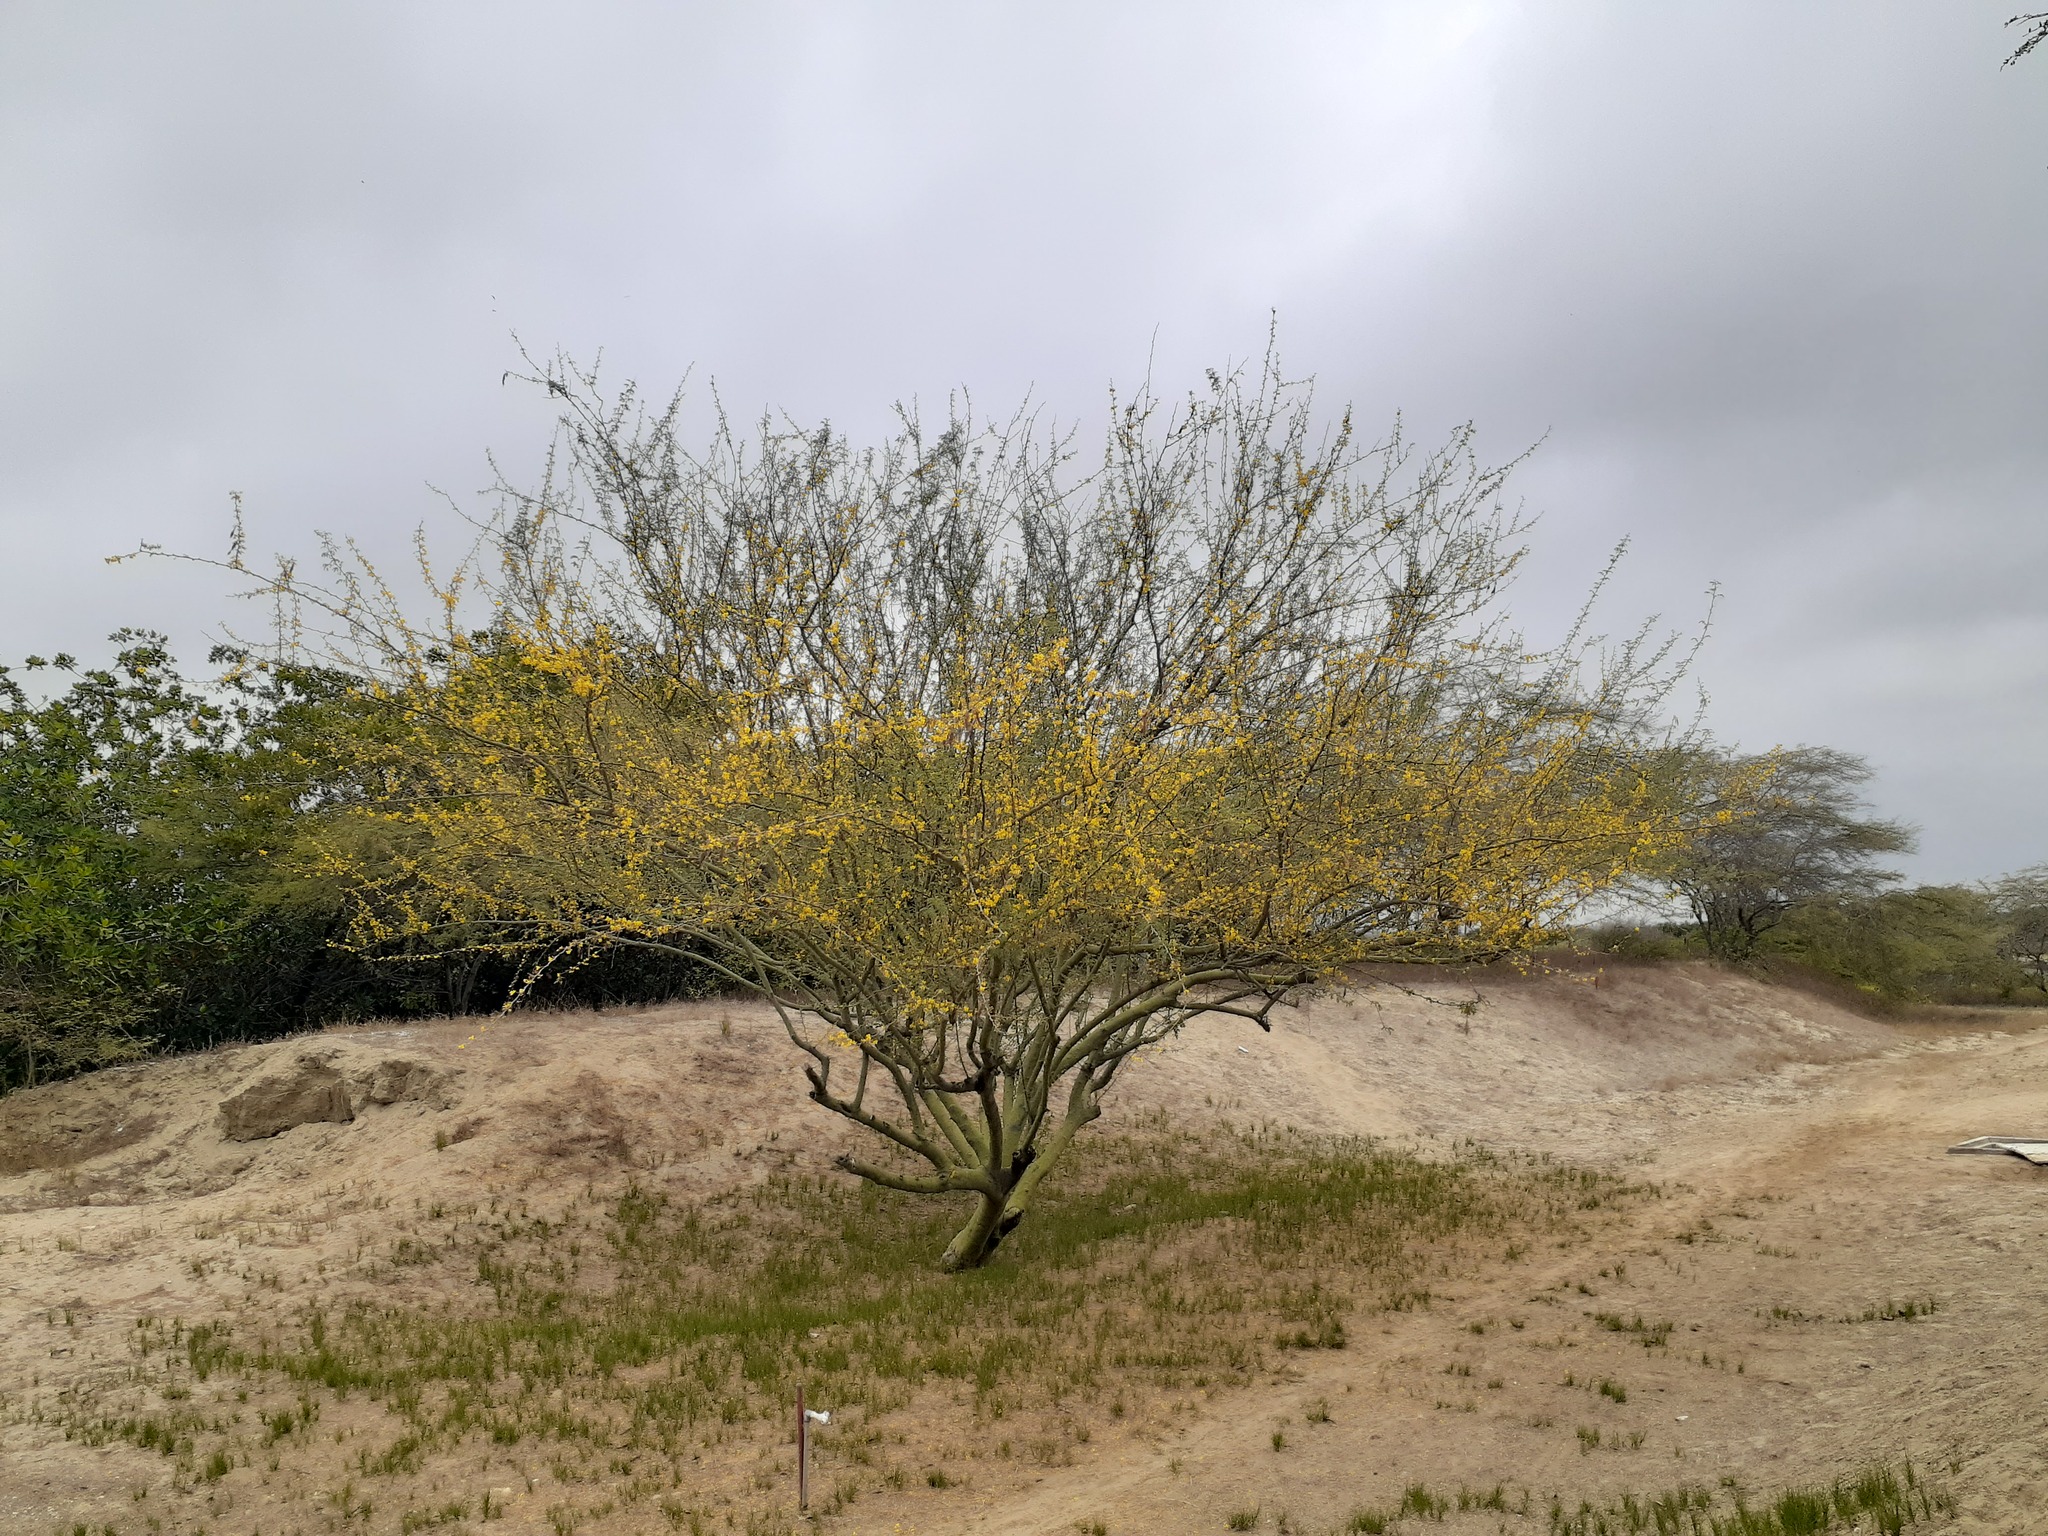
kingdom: Plantae
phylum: Tracheophyta
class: Magnoliopsida
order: Fabales
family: Fabaceae
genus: Parkinsonia
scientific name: Parkinsonia praecox
